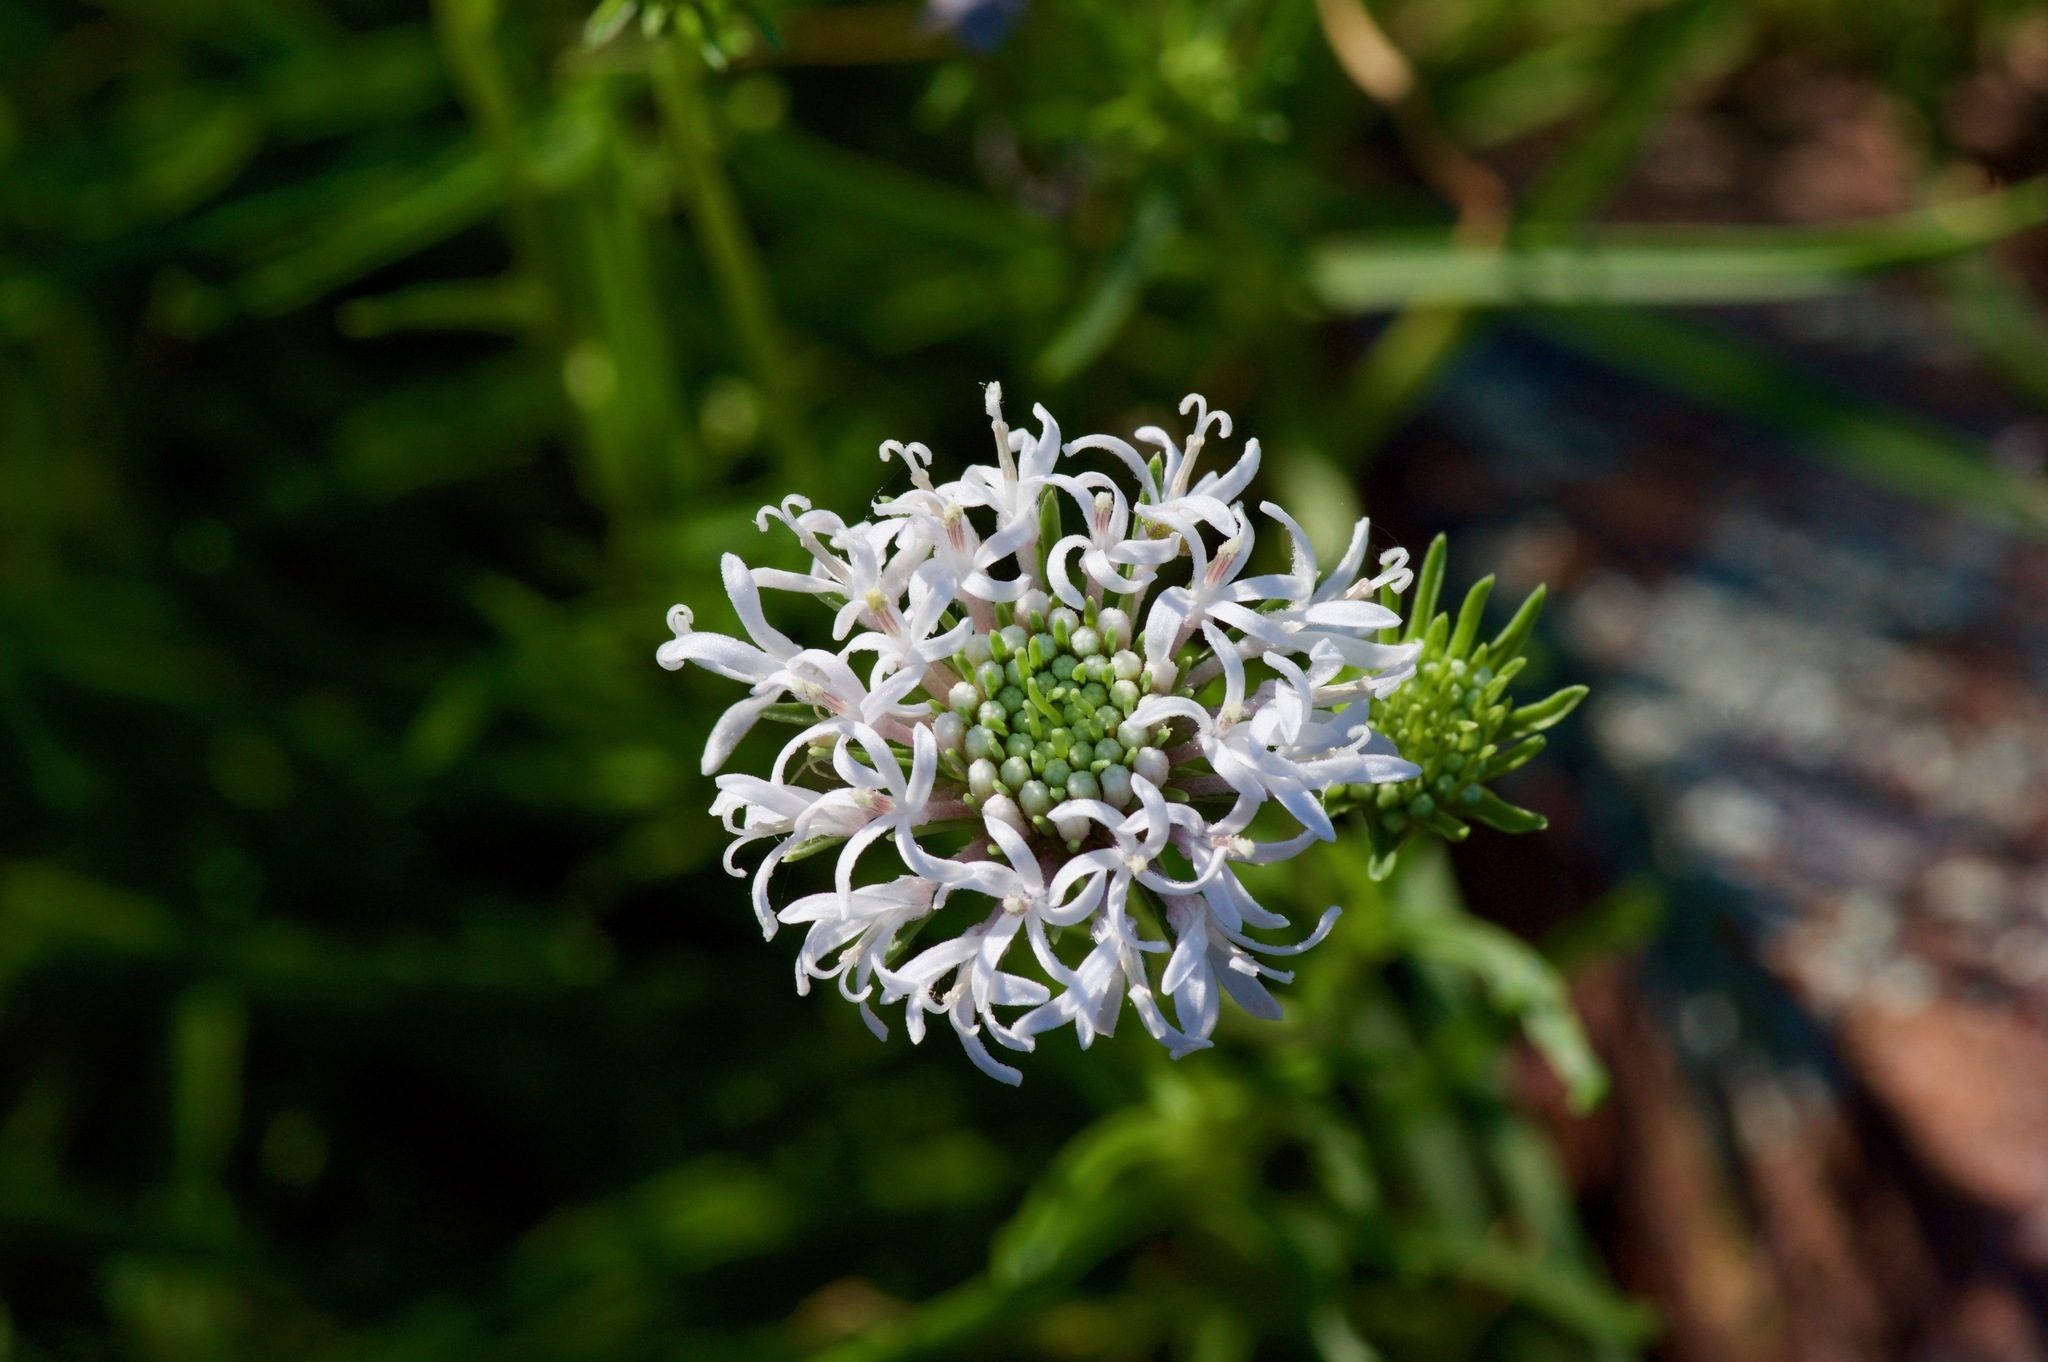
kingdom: Plantae
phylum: Tracheophyta
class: Magnoliopsida
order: Asterales
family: Asteraceae
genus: Marshallia
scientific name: Marshallia caespitosa
